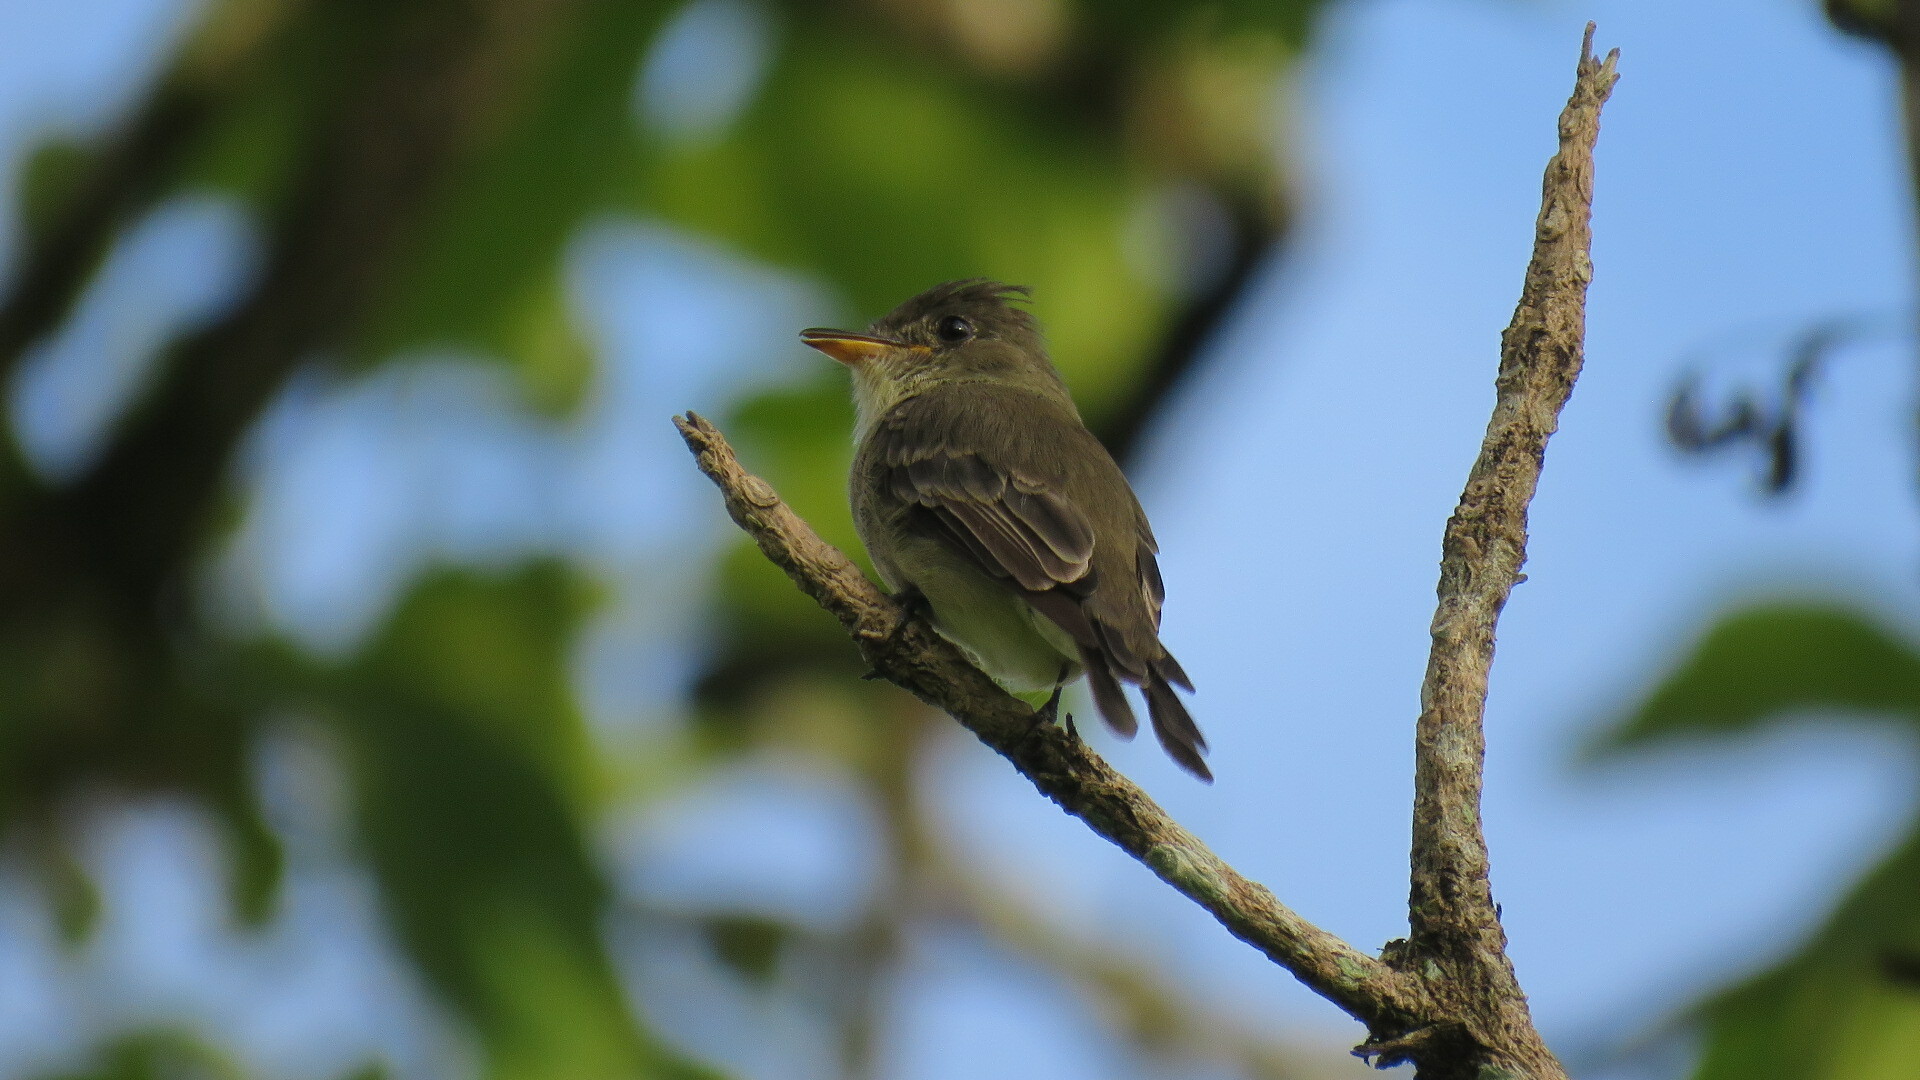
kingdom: Animalia
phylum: Chordata
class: Aves
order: Passeriformes
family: Tyrannidae
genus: Contopus
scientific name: Contopus cinereus
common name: Tropical pewee
